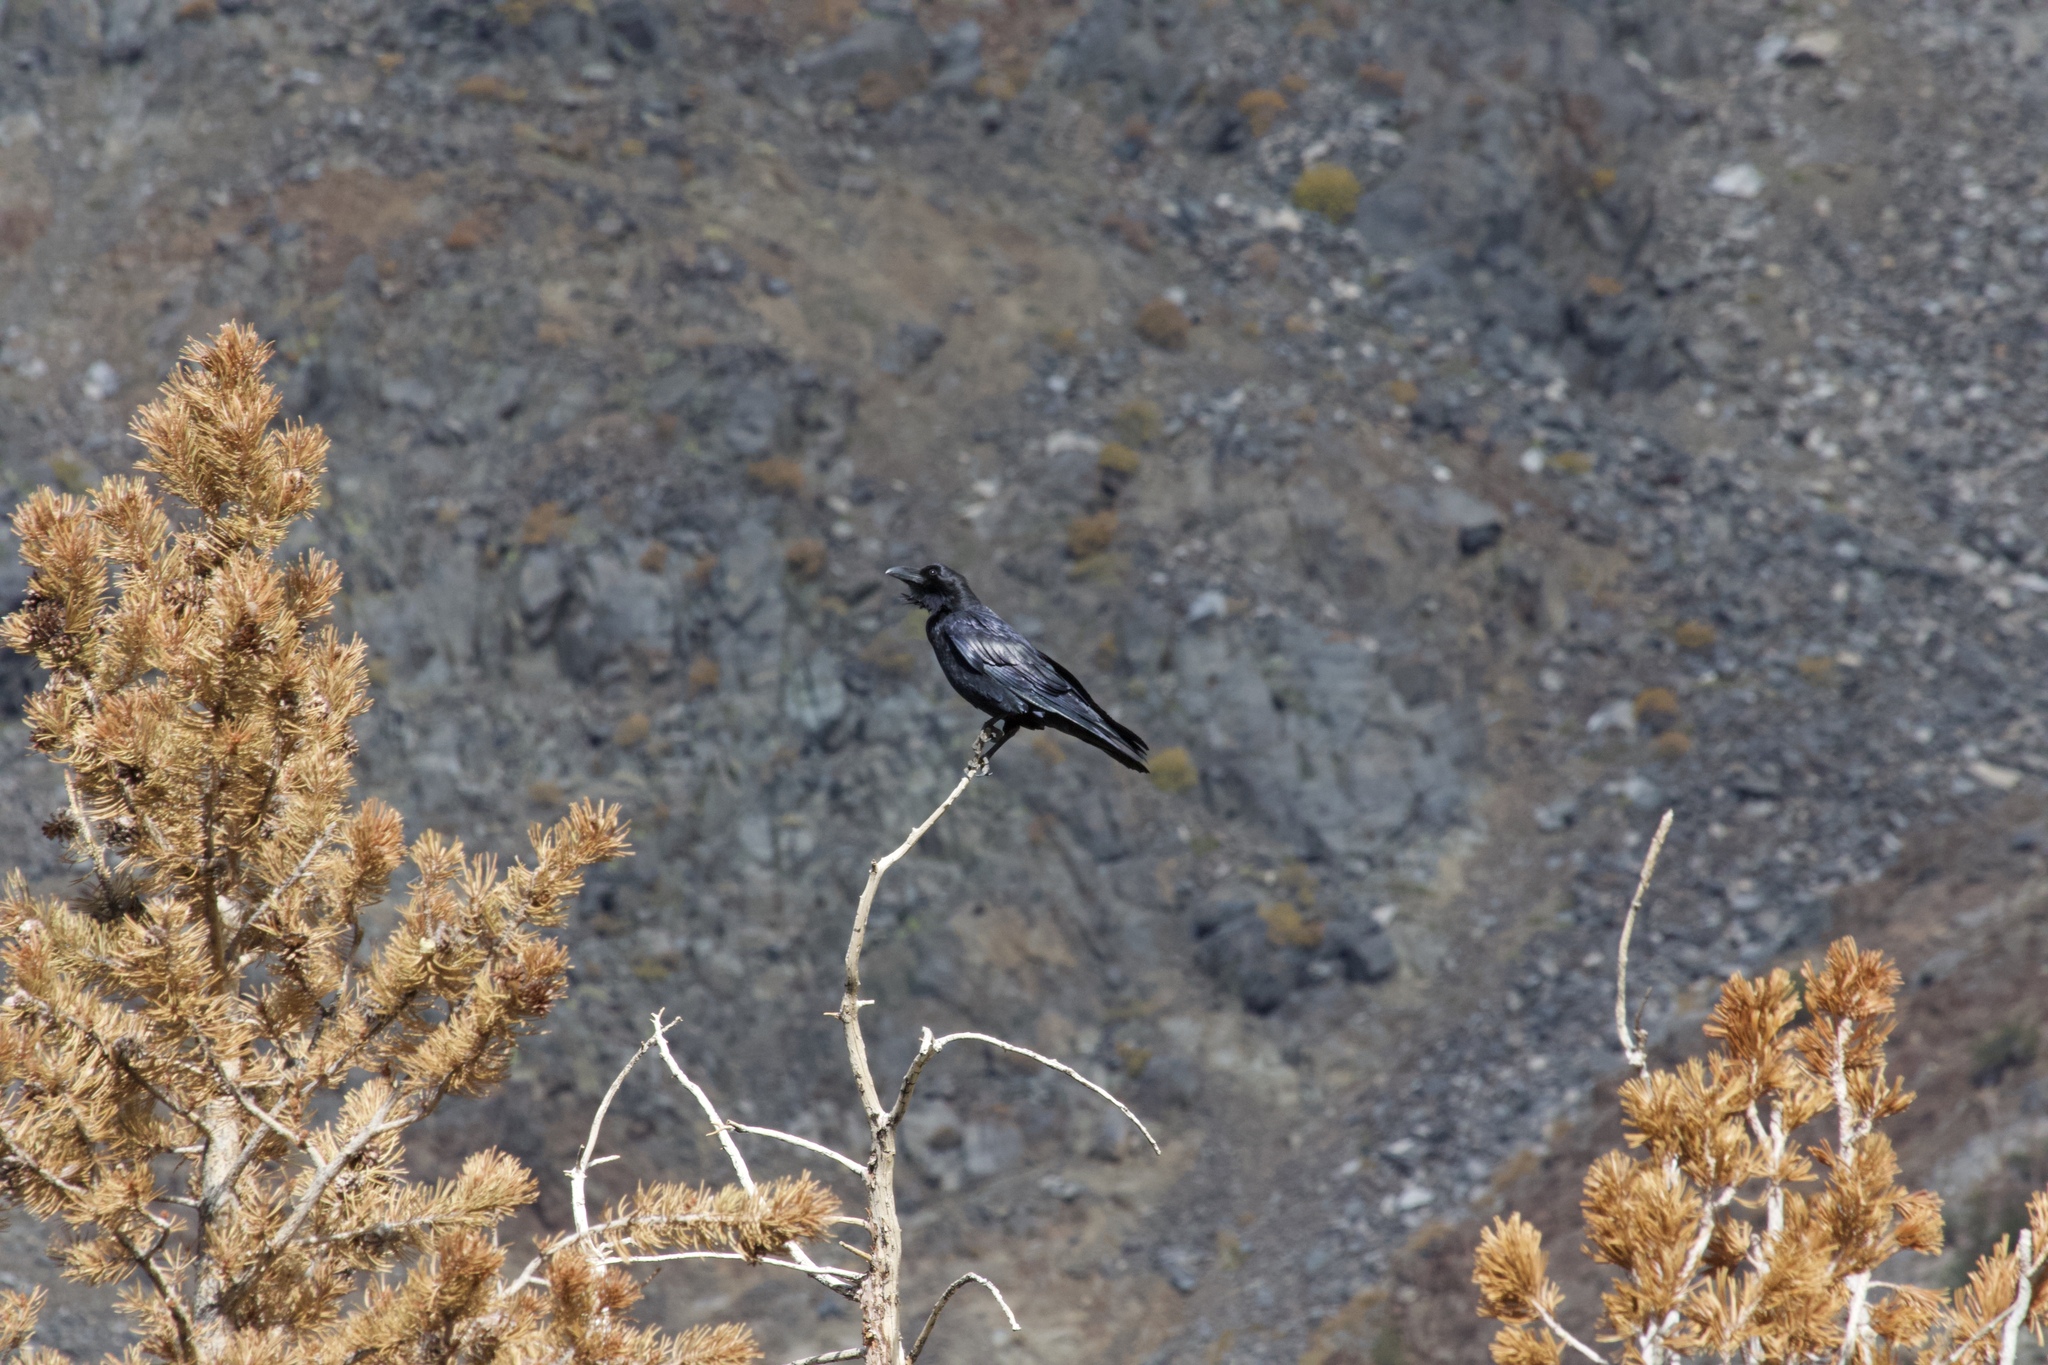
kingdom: Animalia
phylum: Chordata
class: Aves
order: Passeriformes
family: Corvidae
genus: Corvus
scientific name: Corvus corax
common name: Common raven
